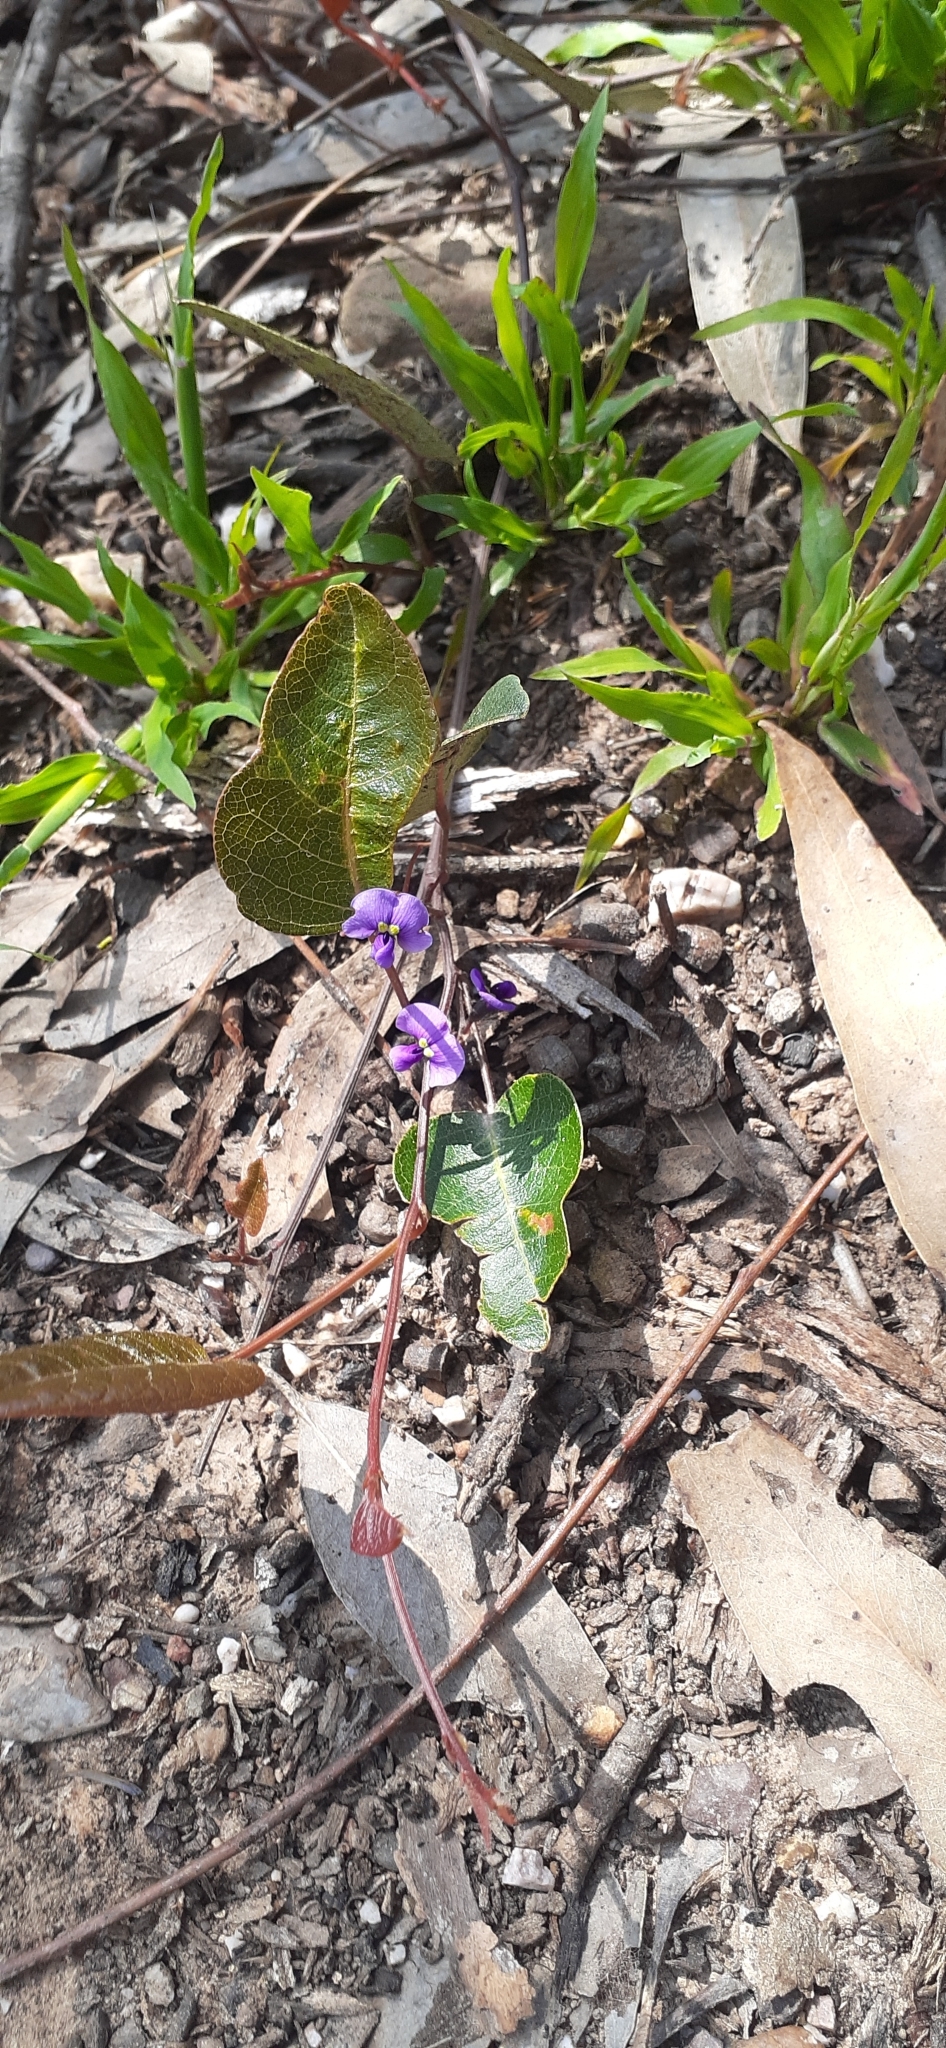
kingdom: Plantae
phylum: Tracheophyta
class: Magnoliopsida
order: Fabales
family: Fabaceae
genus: Hardenbergia
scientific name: Hardenbergia violacea
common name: Coral-pea
